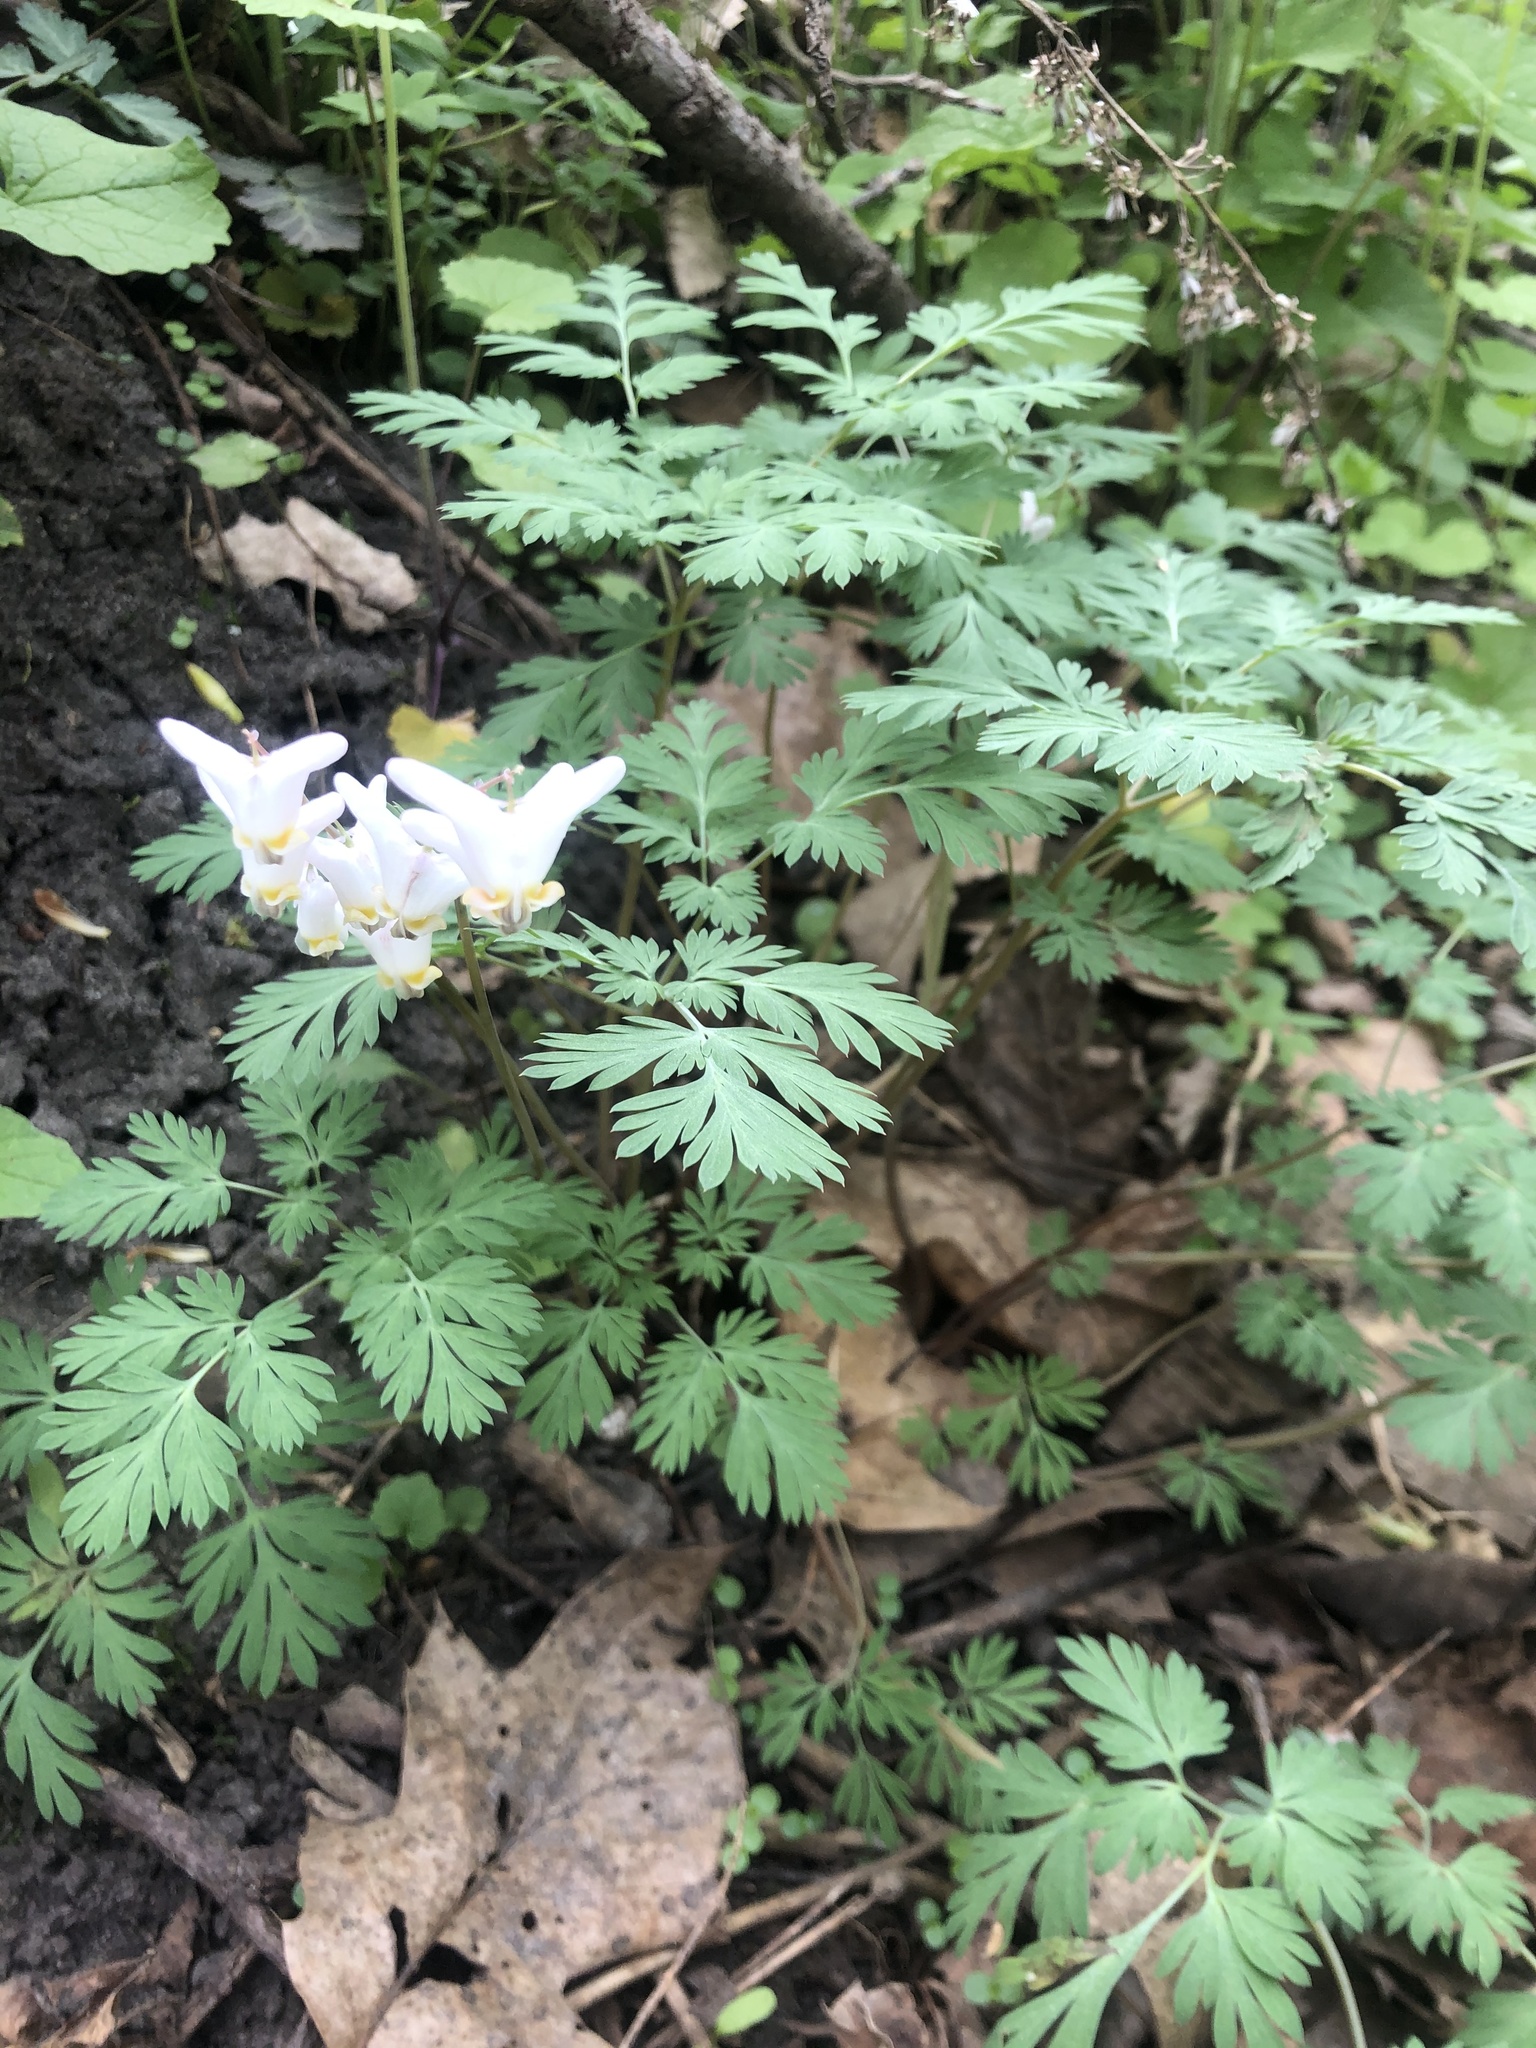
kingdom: Plantae
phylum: Tracheophyta
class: Magnoliopsida
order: Ranunculales
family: Papaveraceae
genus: Dicentra
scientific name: Dicentra cucullaria
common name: Dutchman's breeches
